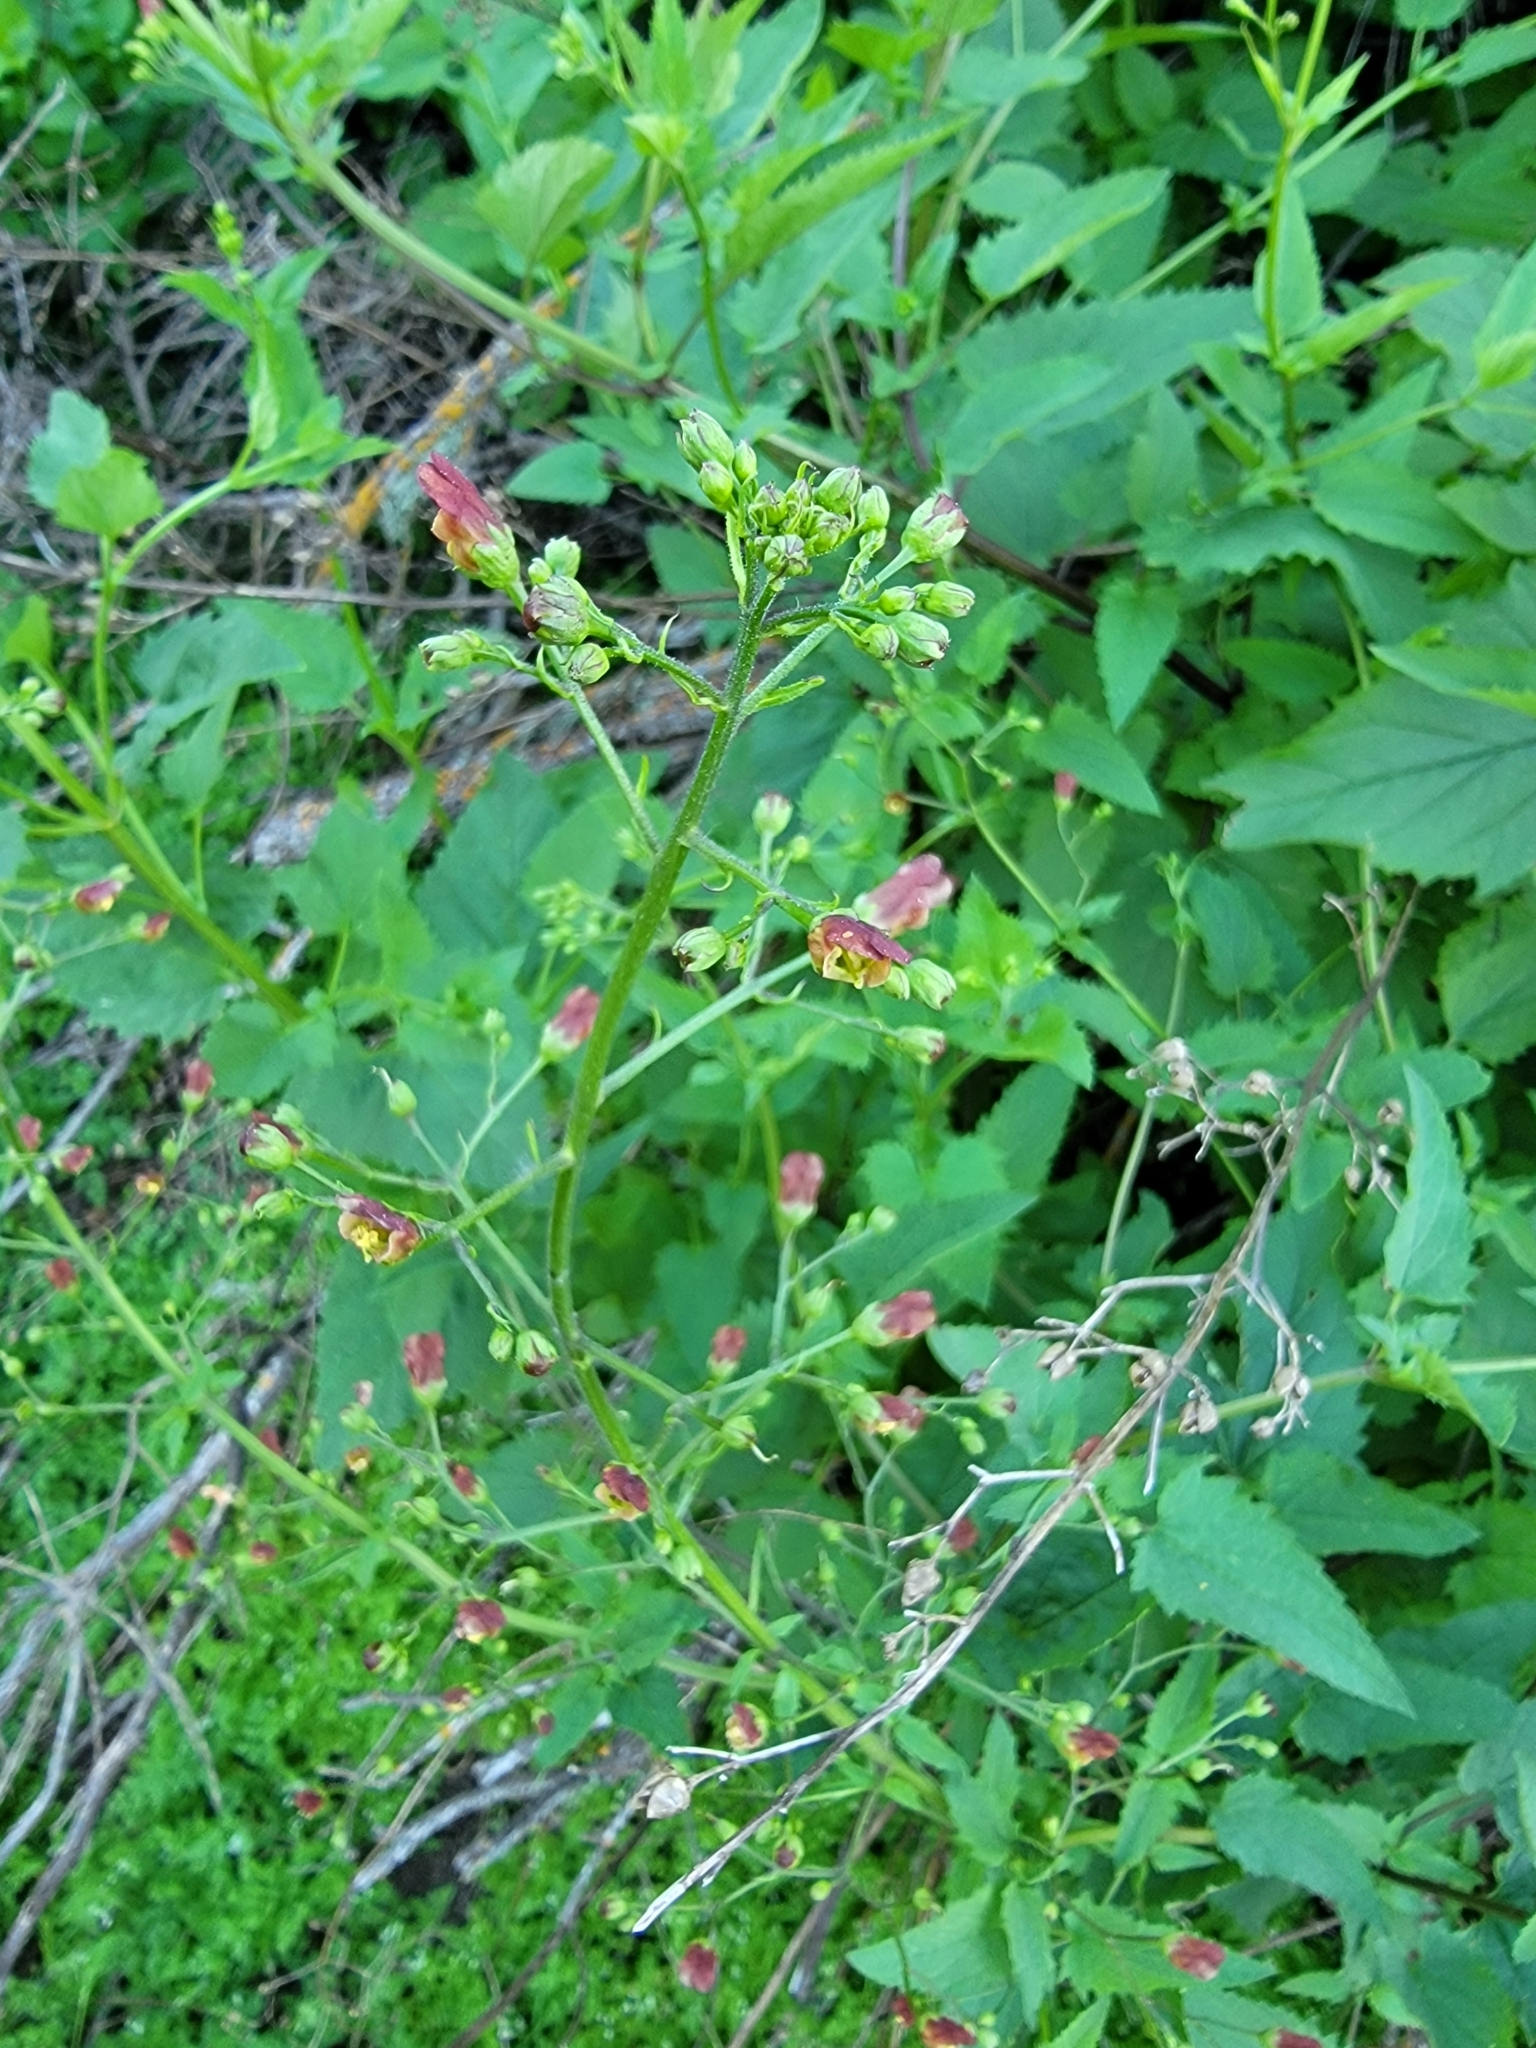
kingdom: Plantae
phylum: Tracheophyta
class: Magnoliopsida
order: Lamiales
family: Scrophulariaceae
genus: Scrophularia
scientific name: Scrophularia californica
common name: California figwort
